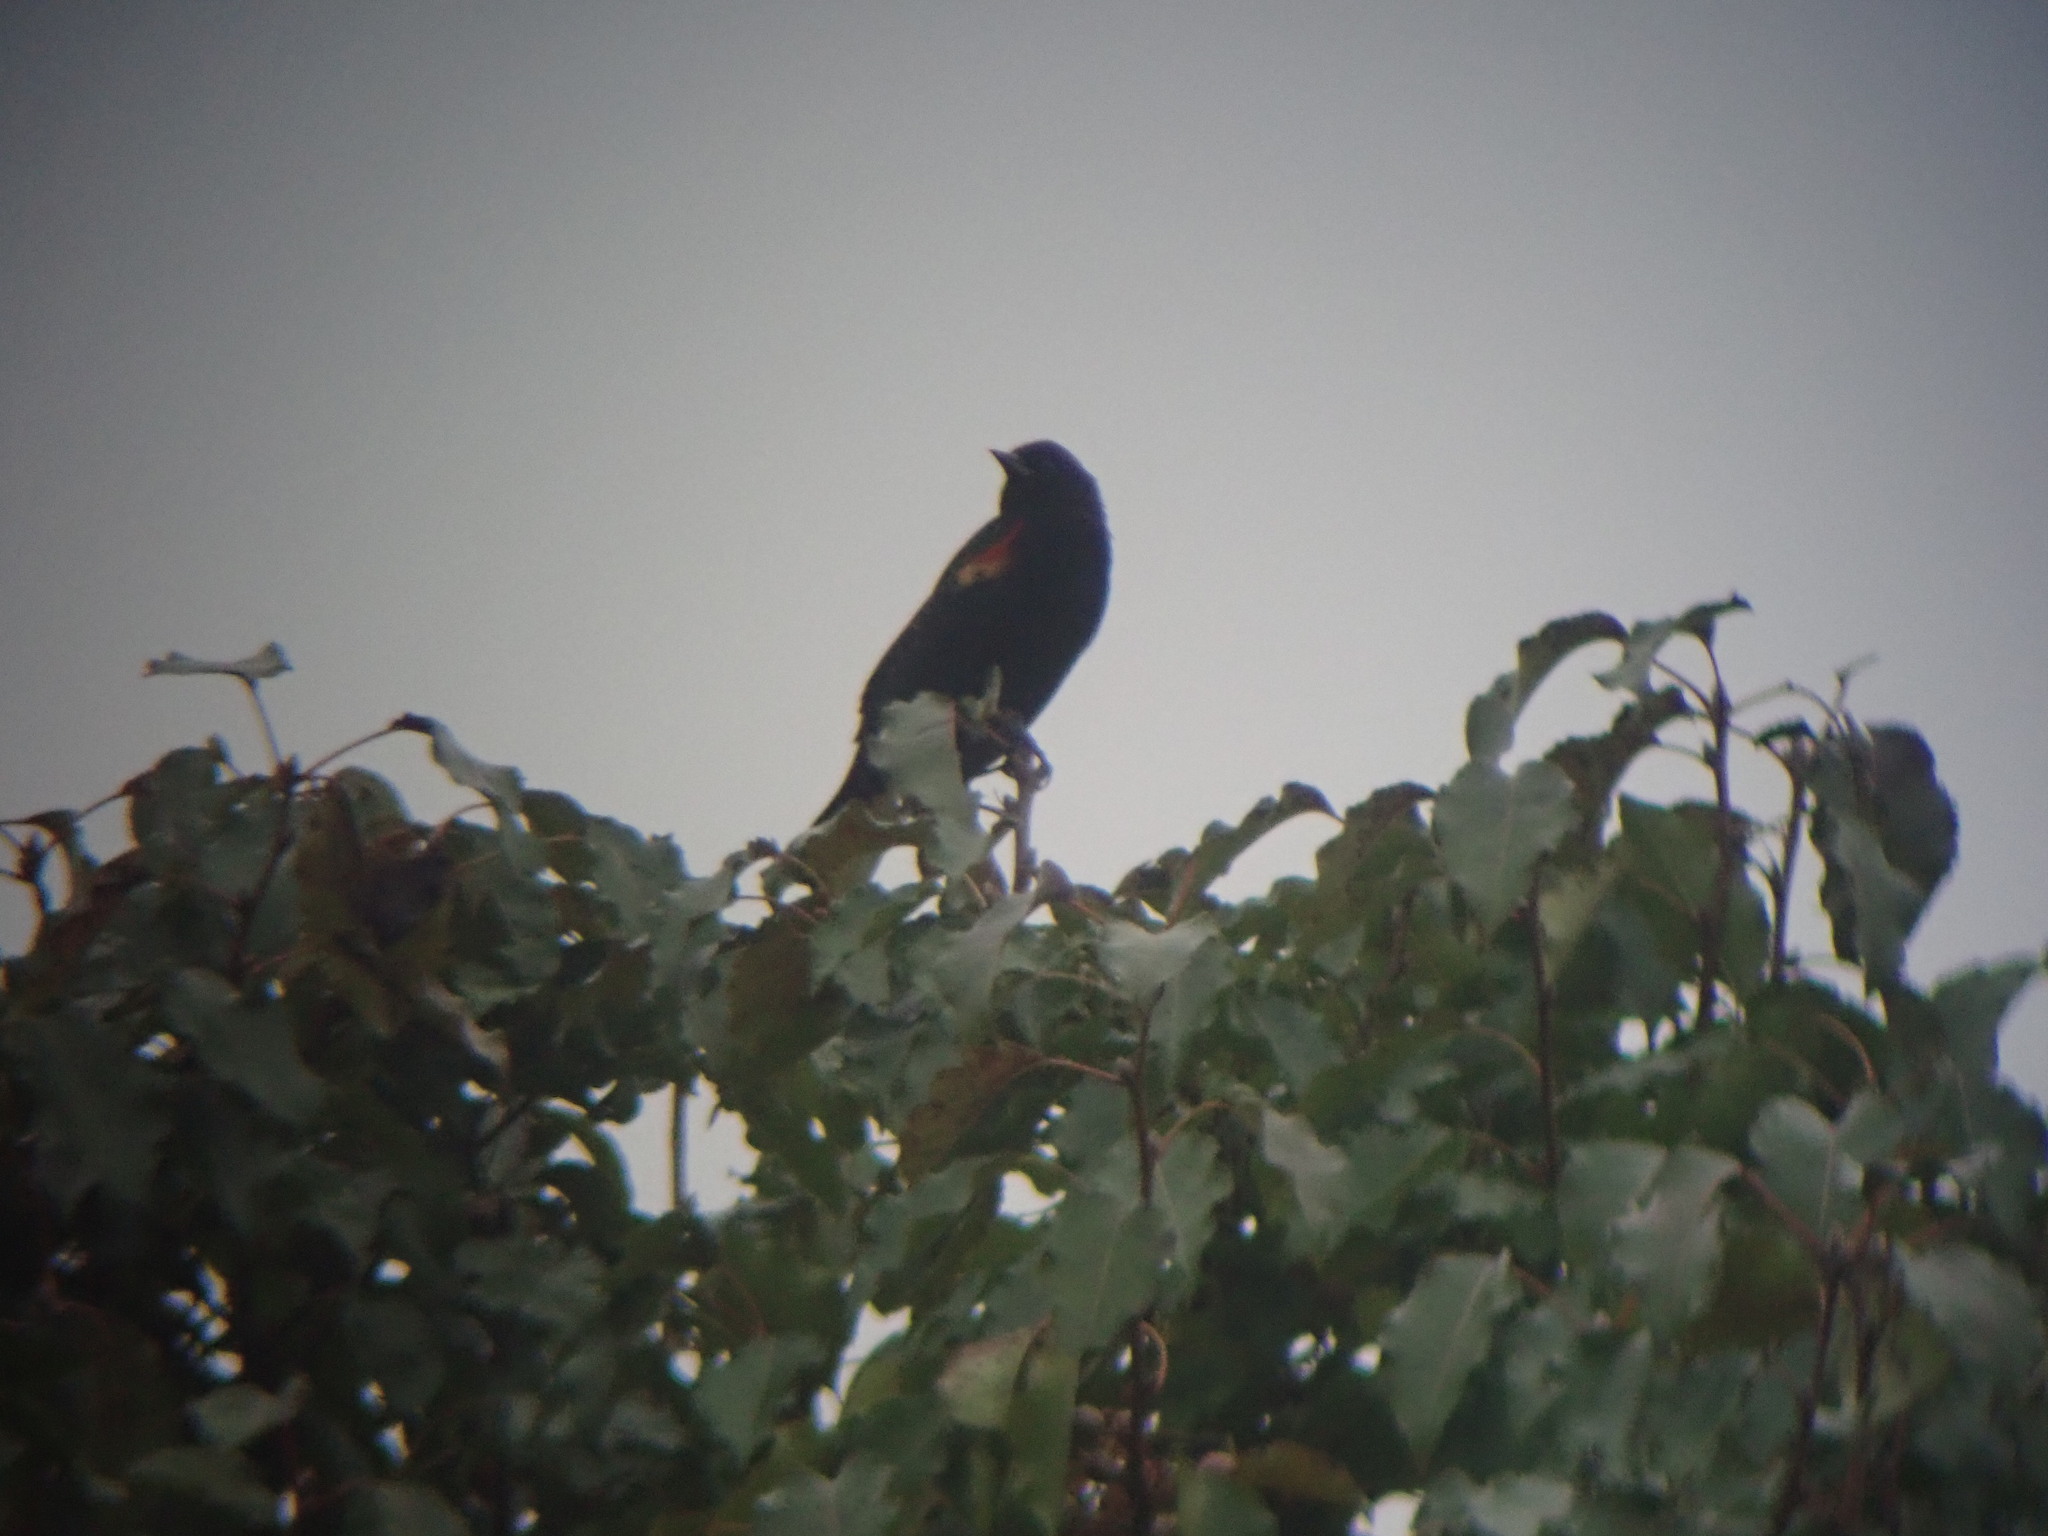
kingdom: Animalia
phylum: Chordata
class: Aves
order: Passeriformes
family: Icteridae
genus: Agelaius
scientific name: Agelaius phoeniceus
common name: Red-winged blackbird
